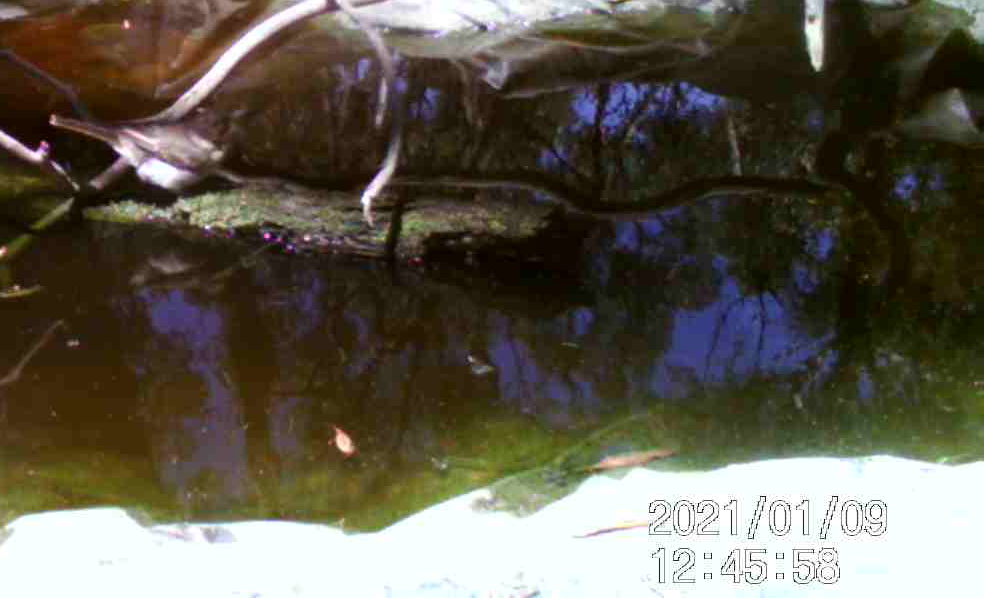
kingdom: Animalia
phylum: Chordata
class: Aves
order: Passeriformes
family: Cracticidae
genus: Cracticus
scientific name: Cracticus torquatus
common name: Grey butcherbird
